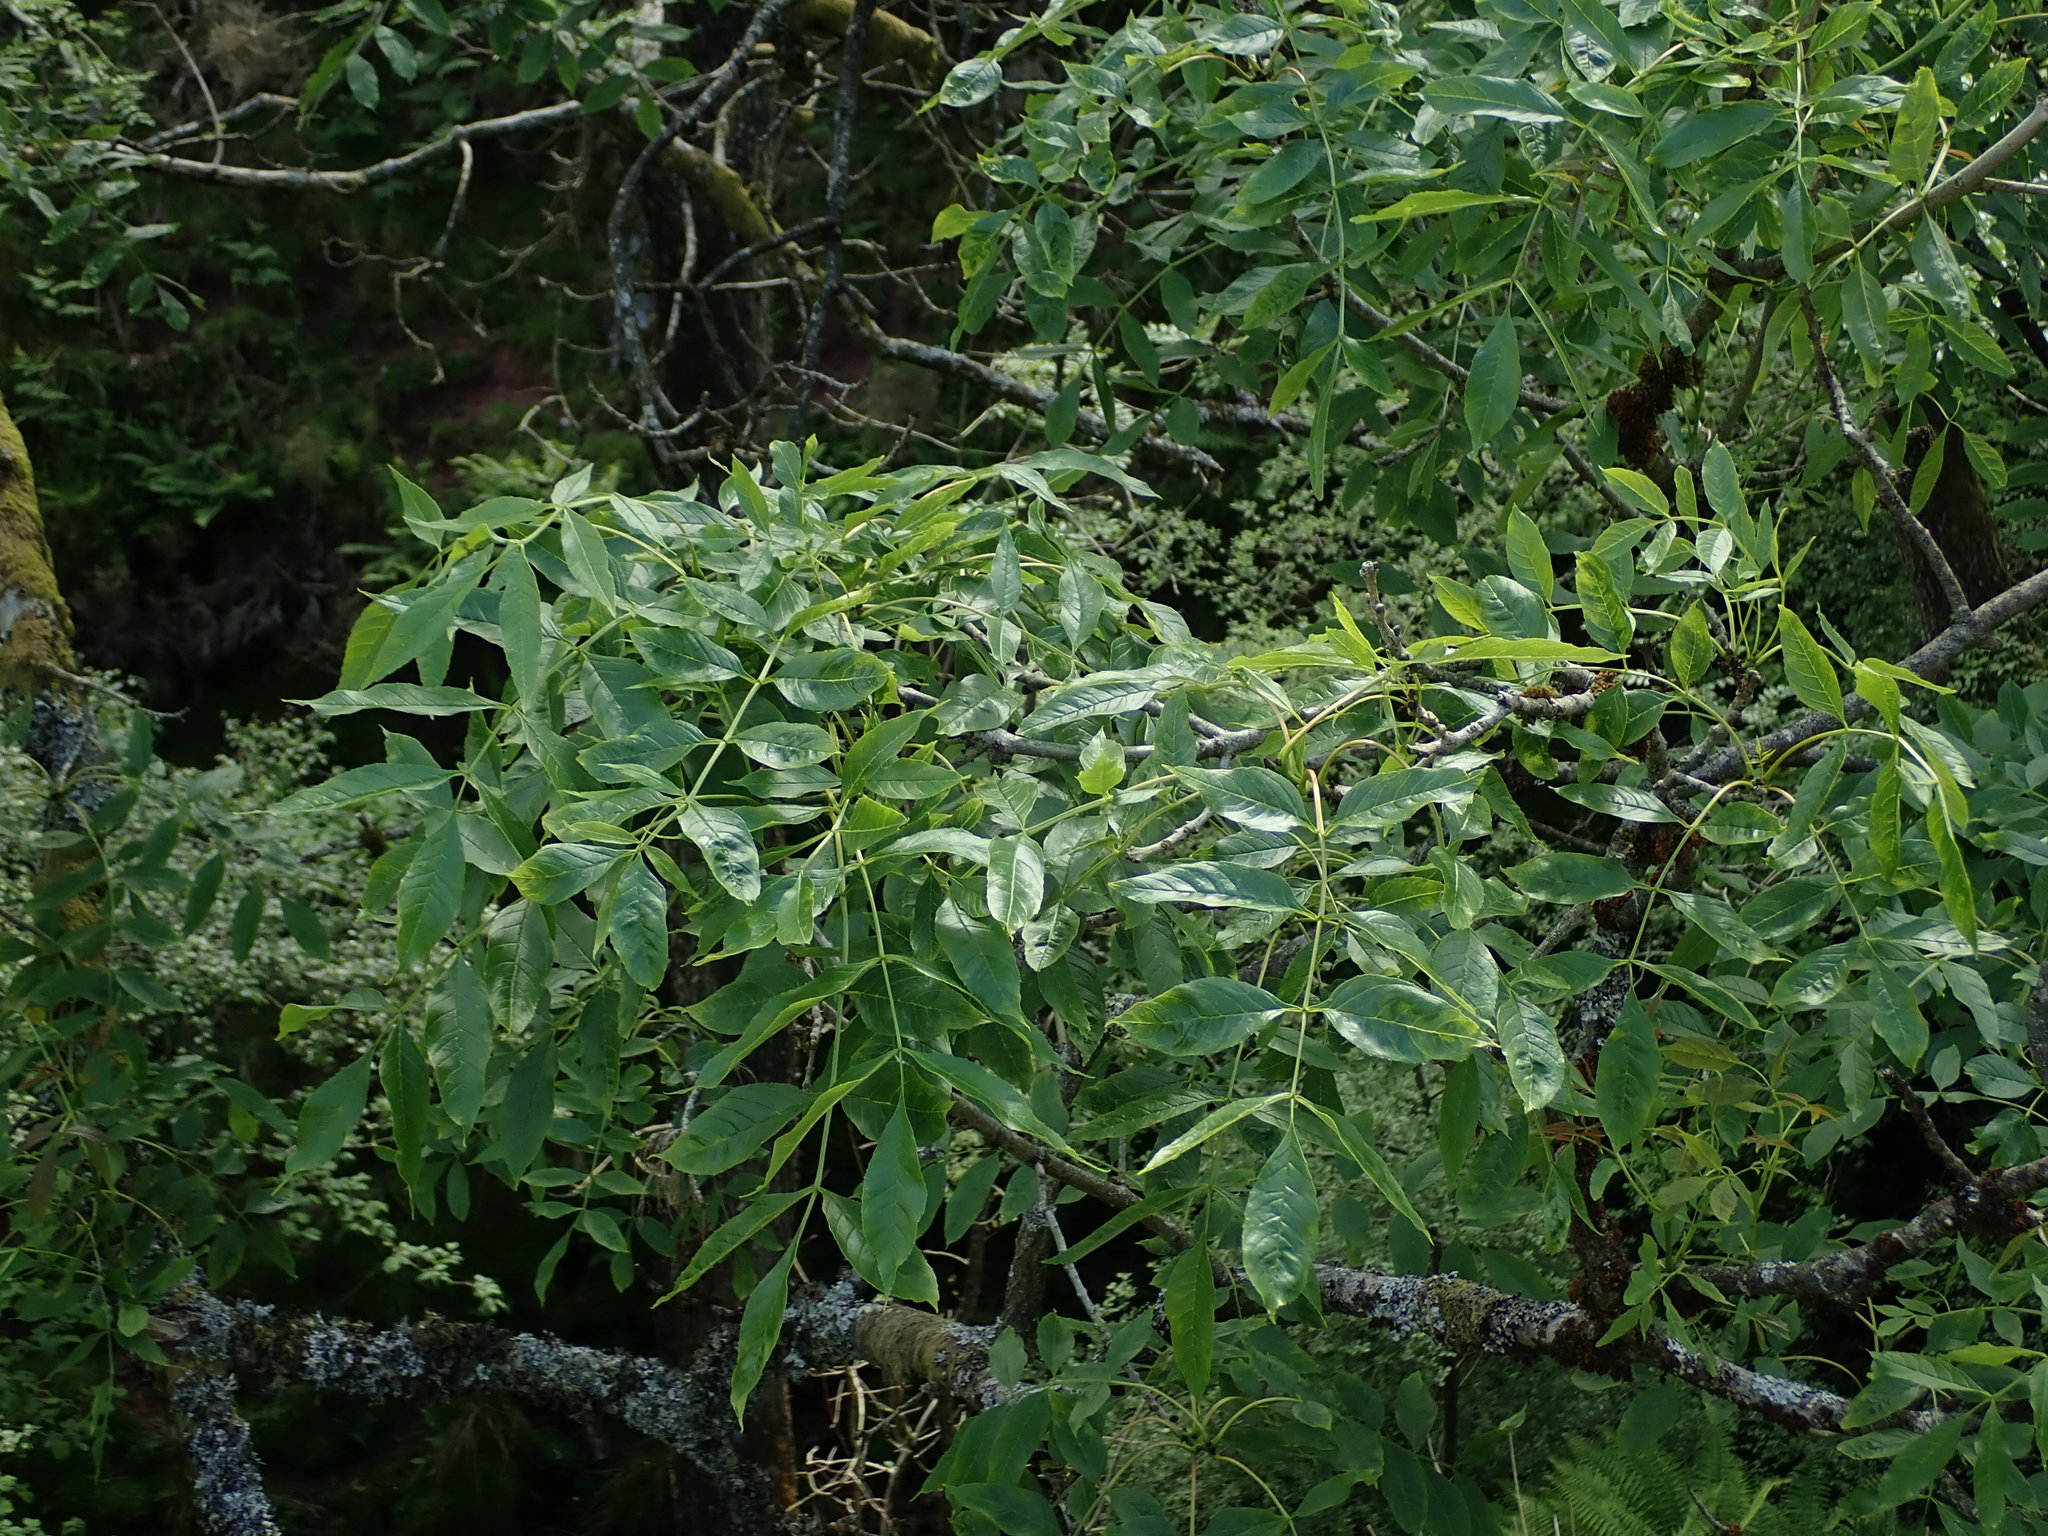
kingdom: Plantae
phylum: Tracheophyta
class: Magnoliopsida
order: Lamiales
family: Oleaceae
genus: Fraxinus
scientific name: Fraxinus excelsior
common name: European ash
